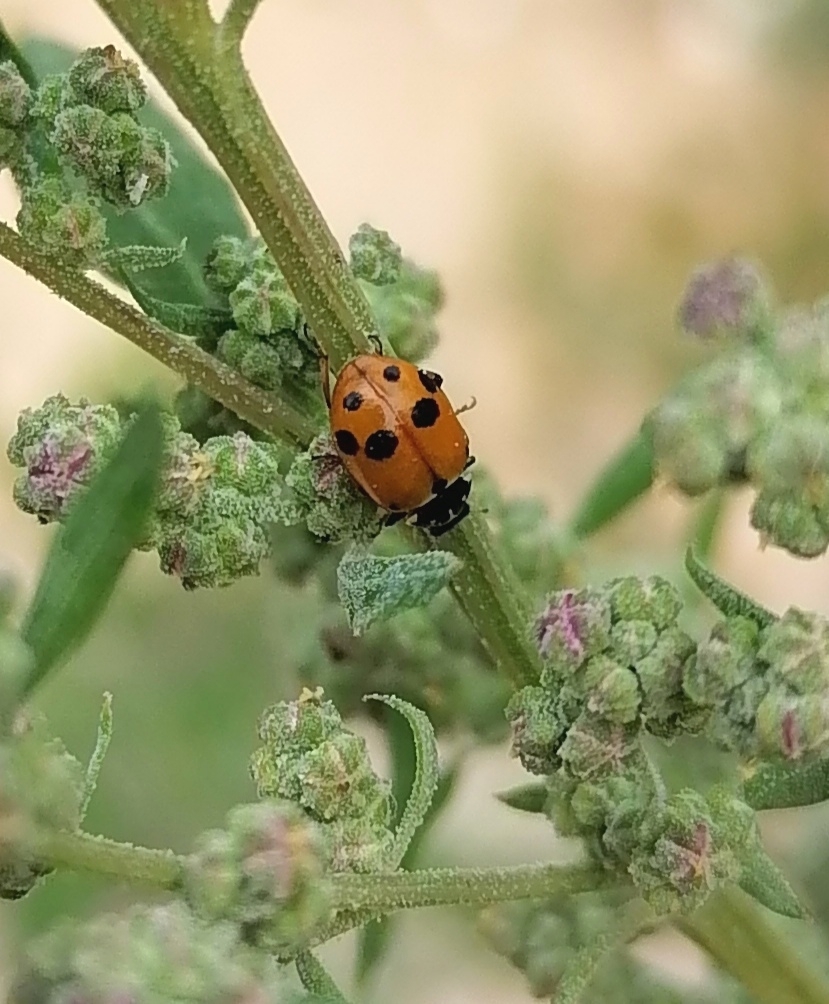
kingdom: Animalia
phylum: Arthropoda
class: Insecta
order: Coleoptera
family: Coccinellidae
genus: Hippodamia
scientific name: Hippodamia variegata
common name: Ladybird beetle
